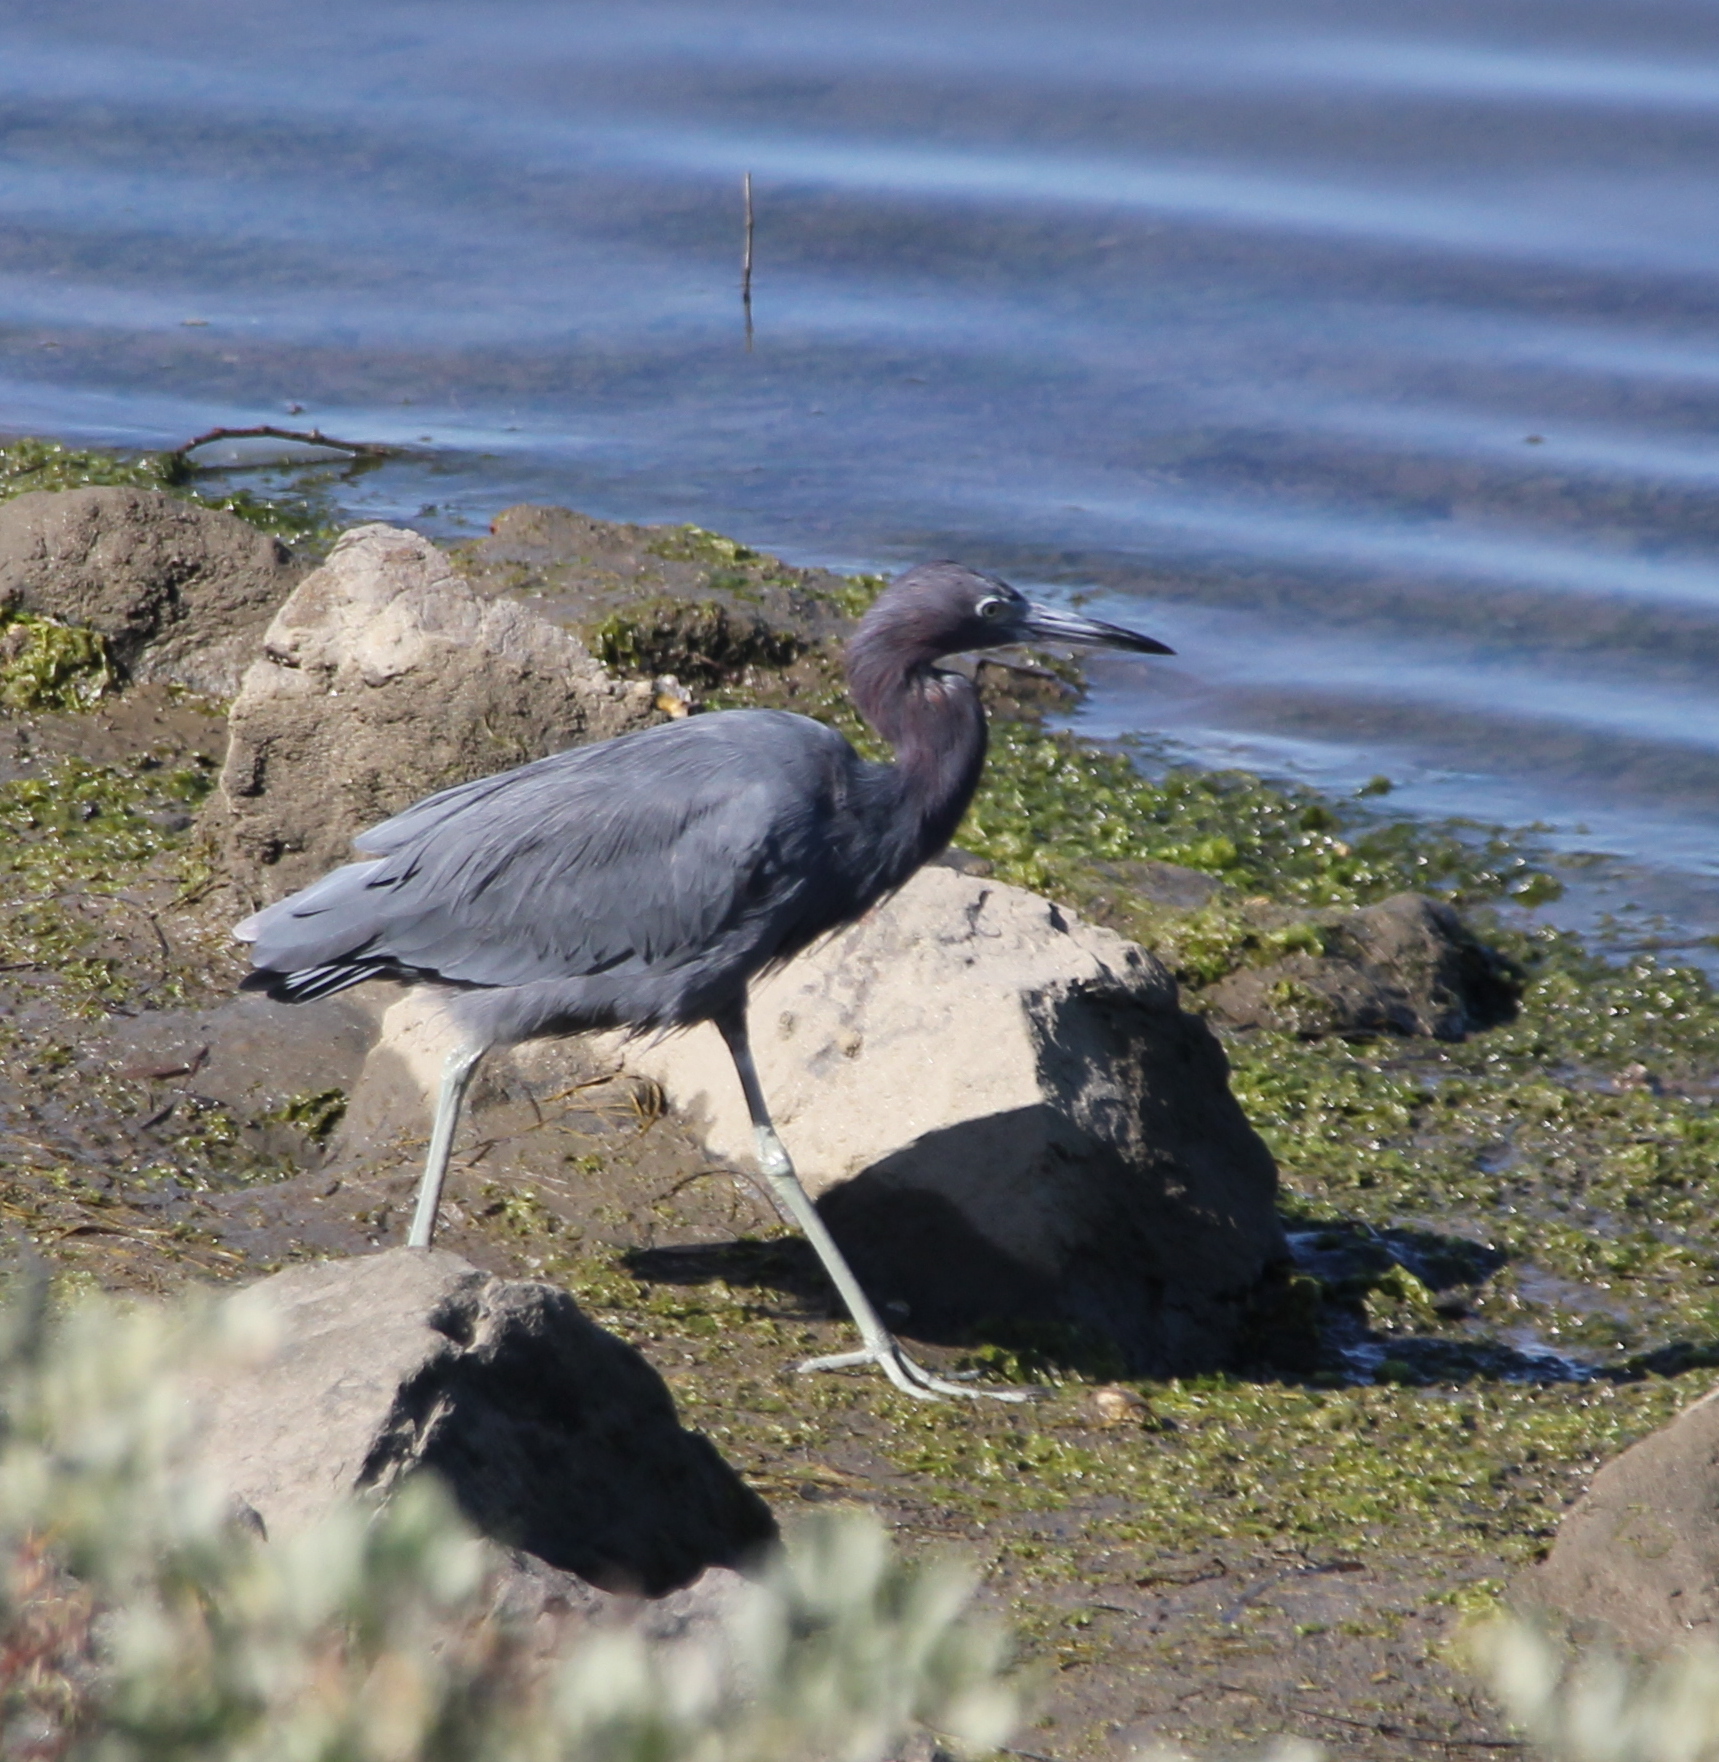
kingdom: Animalia
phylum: Chordata
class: Aves
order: Pelecaniformes
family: Ardeidae
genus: Egretta
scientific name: Egretta caerulea
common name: Little blue heron
